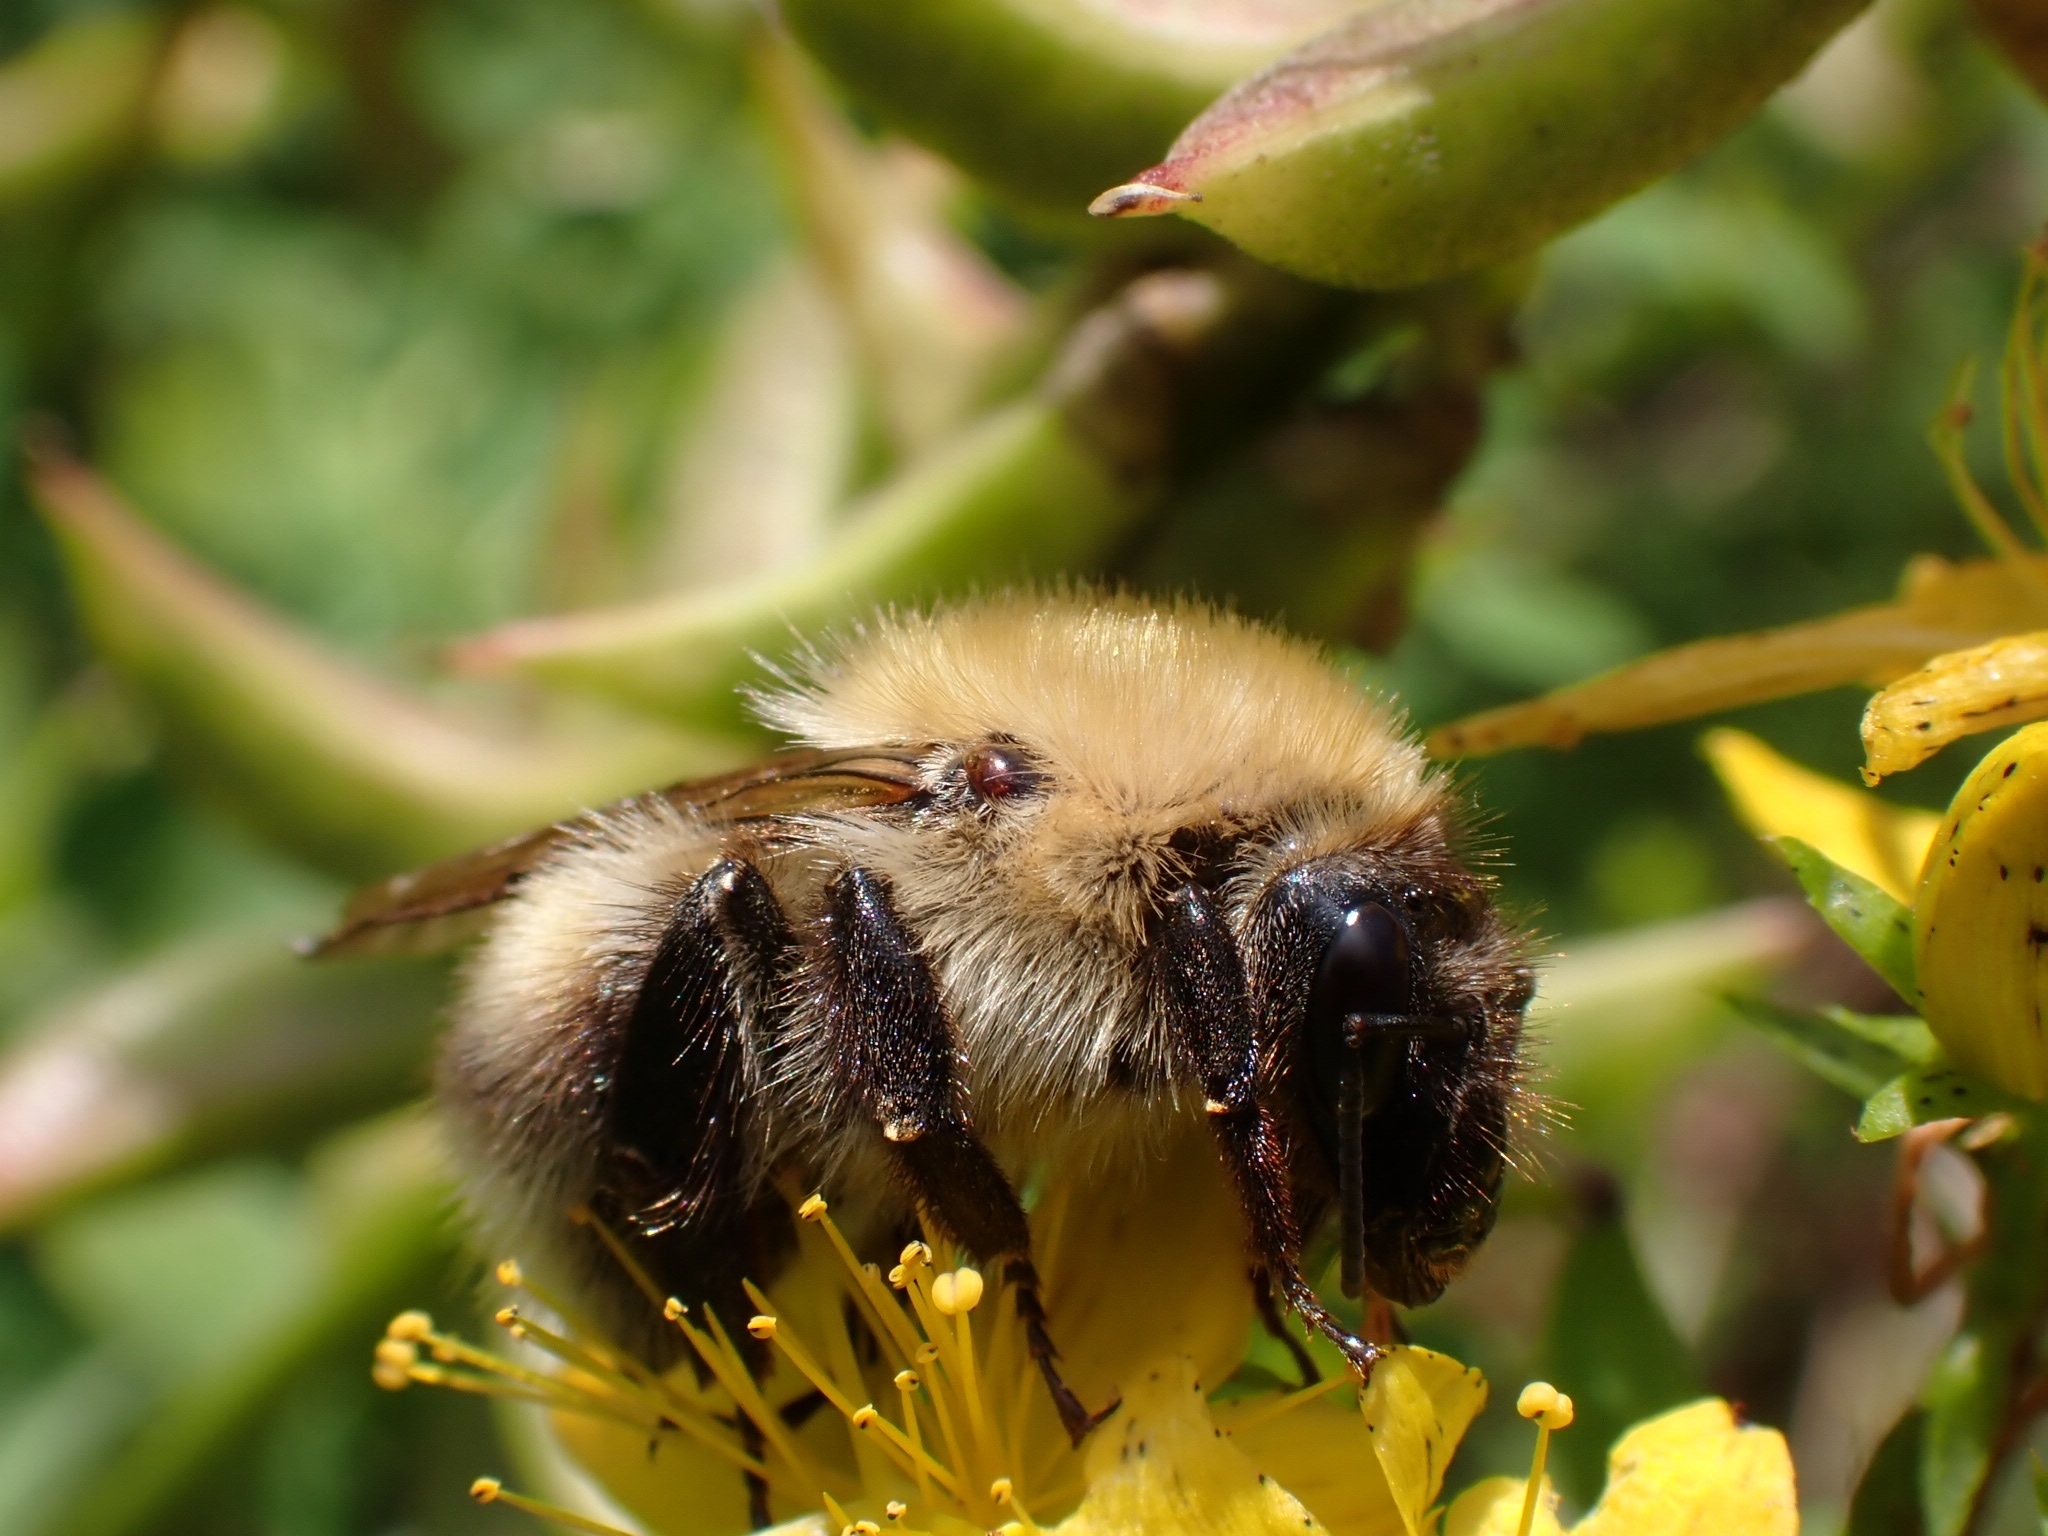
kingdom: Animalia
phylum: Arthropoda
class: Insecta
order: Hymenoptera
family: Apidae
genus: Bombus
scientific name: Bombus consobrinus
